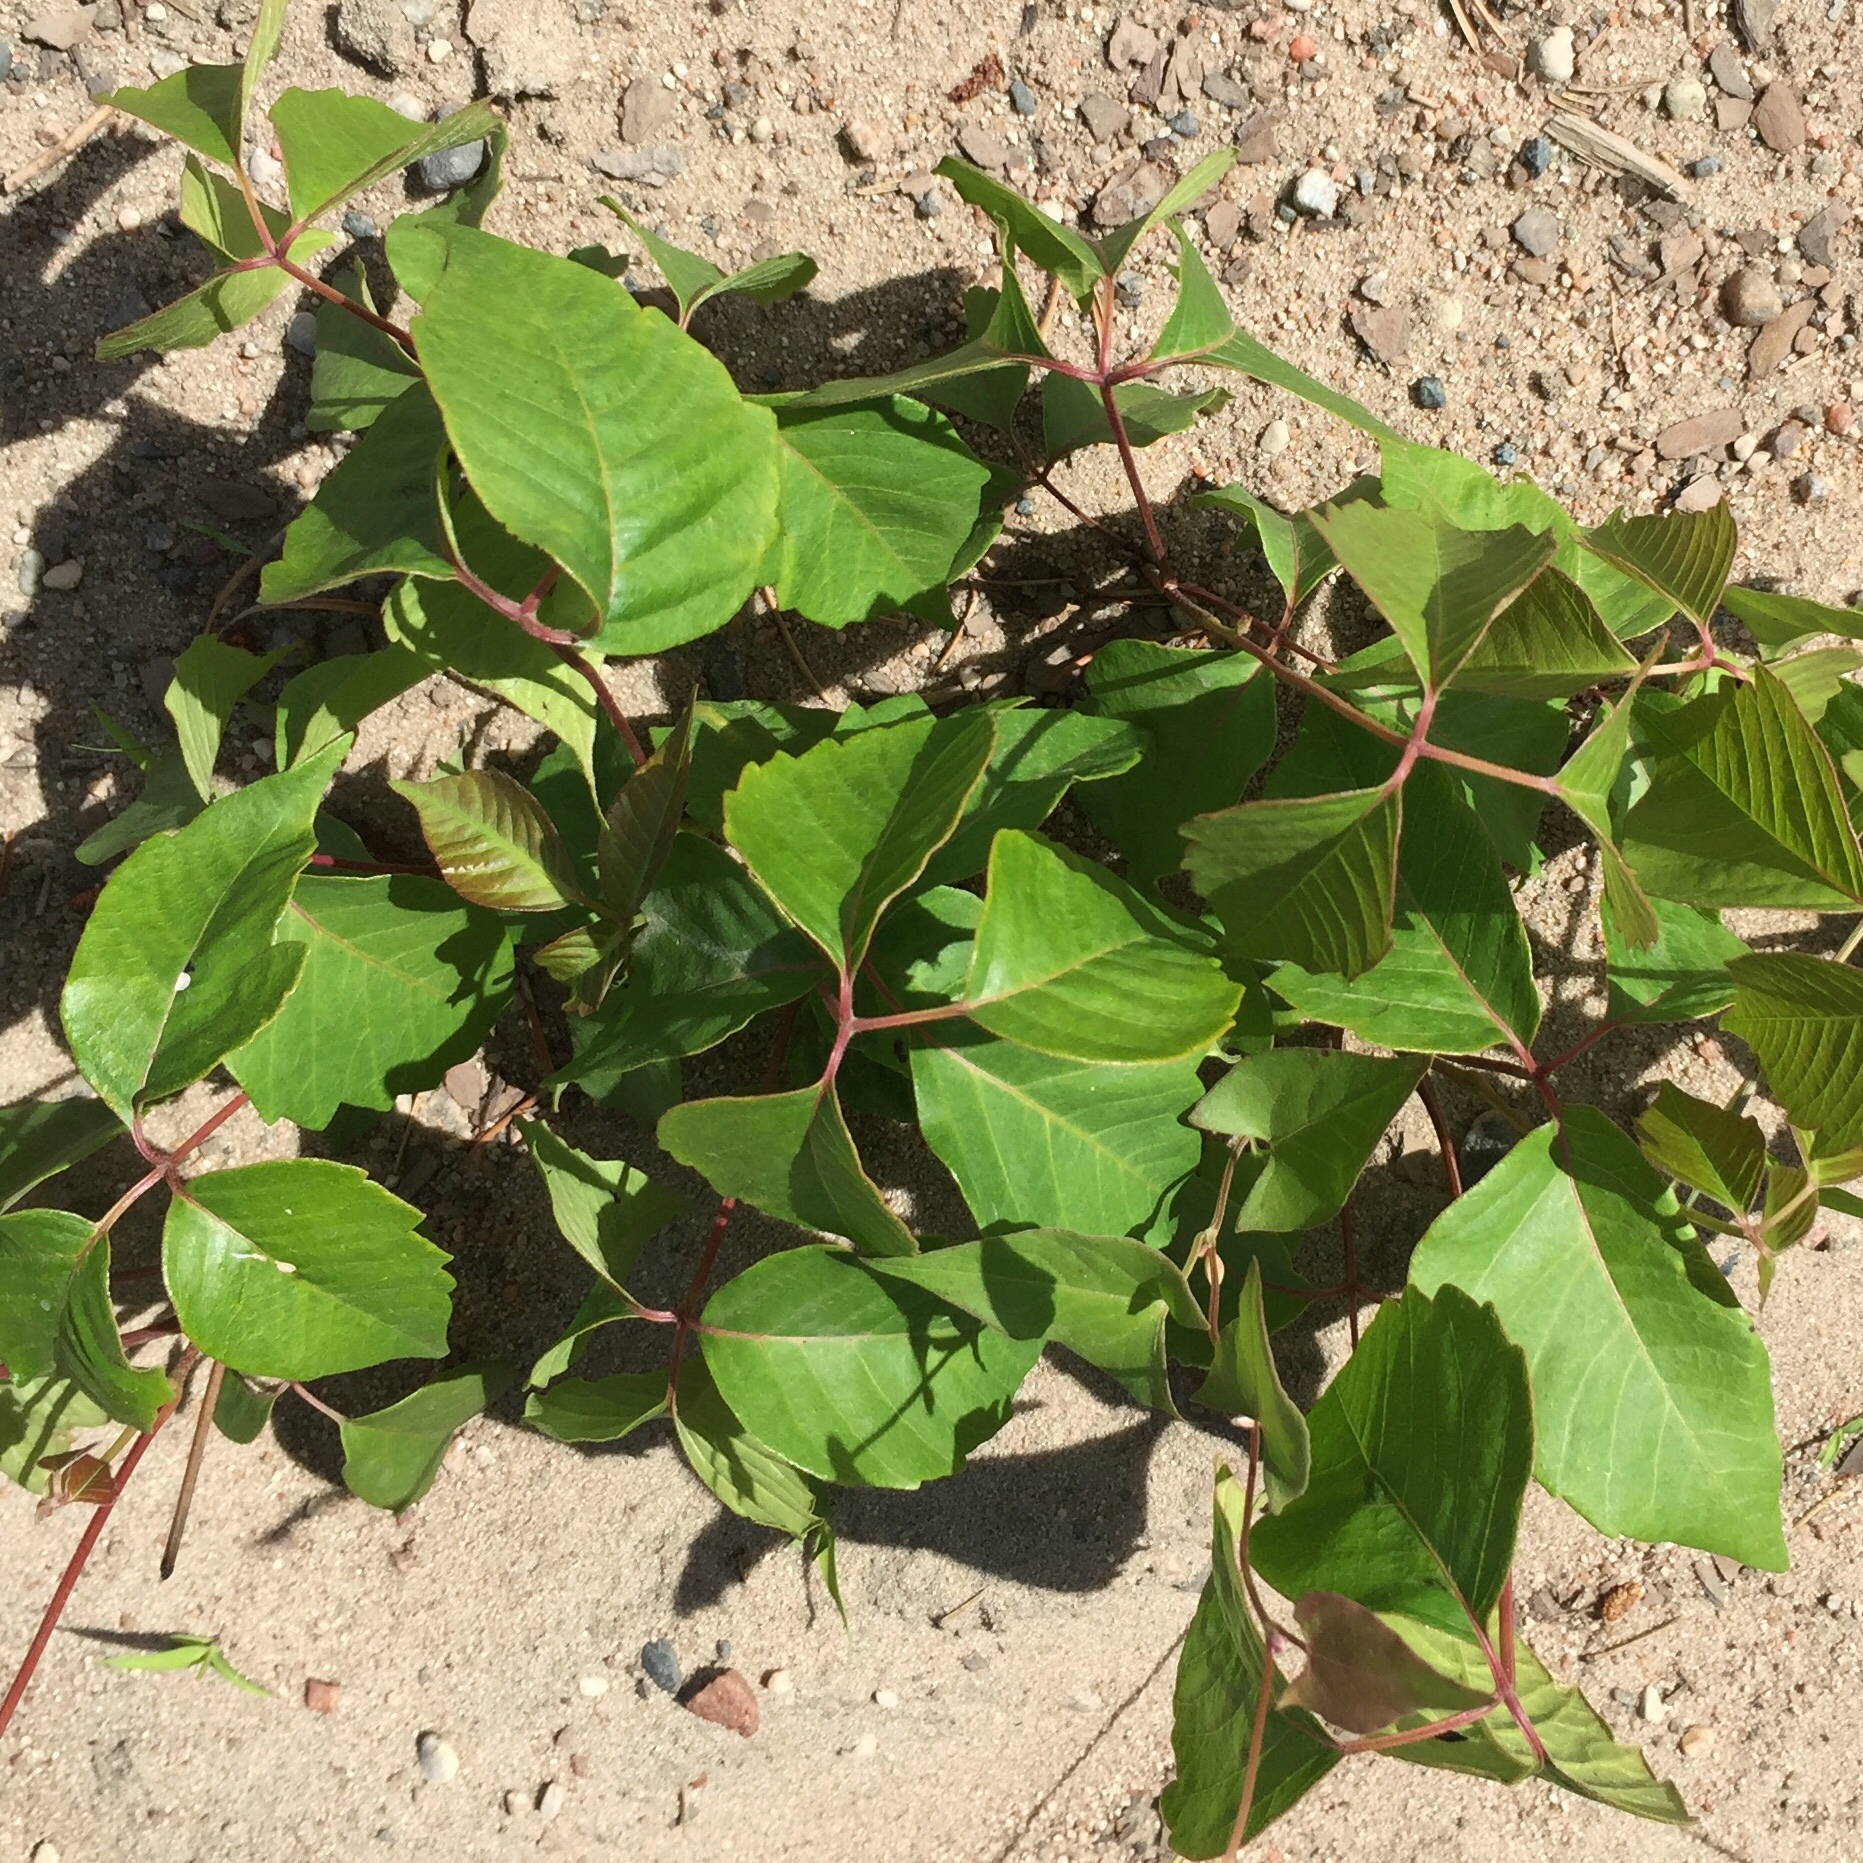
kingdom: Plantae
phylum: Tracheophyta
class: Magnoliopsida
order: Sapindales
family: Anacardiaceae
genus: Toxicodendron
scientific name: Toxicodendron rydbergii
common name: Rydberg's poison-ivy
